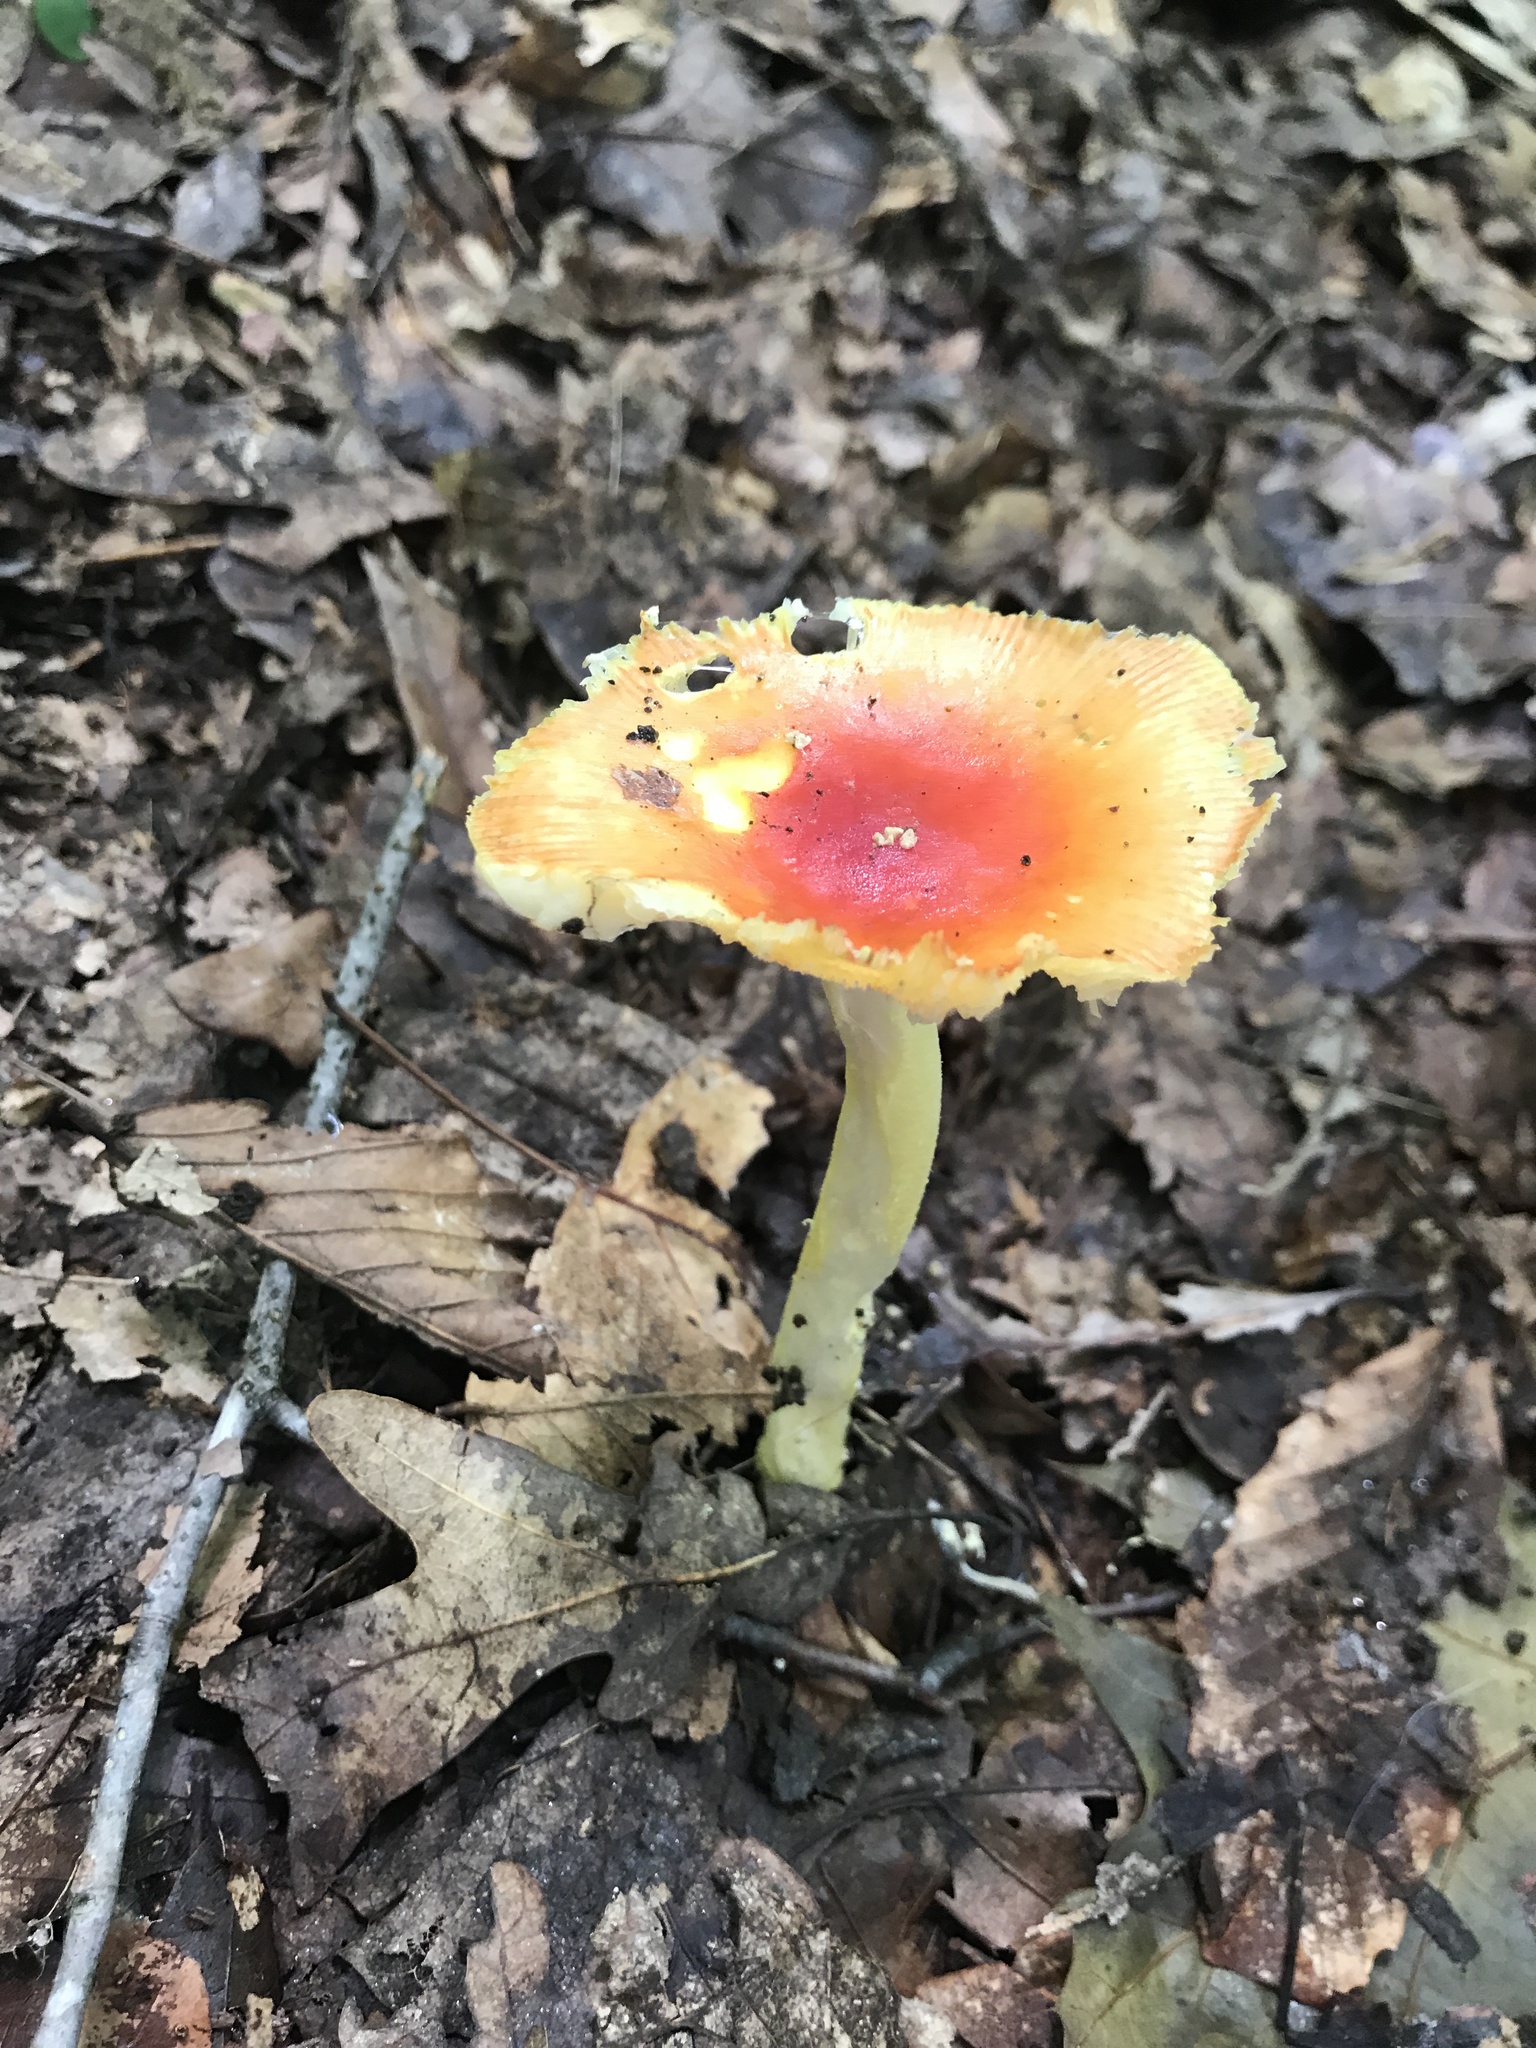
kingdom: Fungi
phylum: Basidiomycota
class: Agaricomycetes
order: Agaricales
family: Amanitaceae
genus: Amanita
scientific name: Amanita parcivolvata
